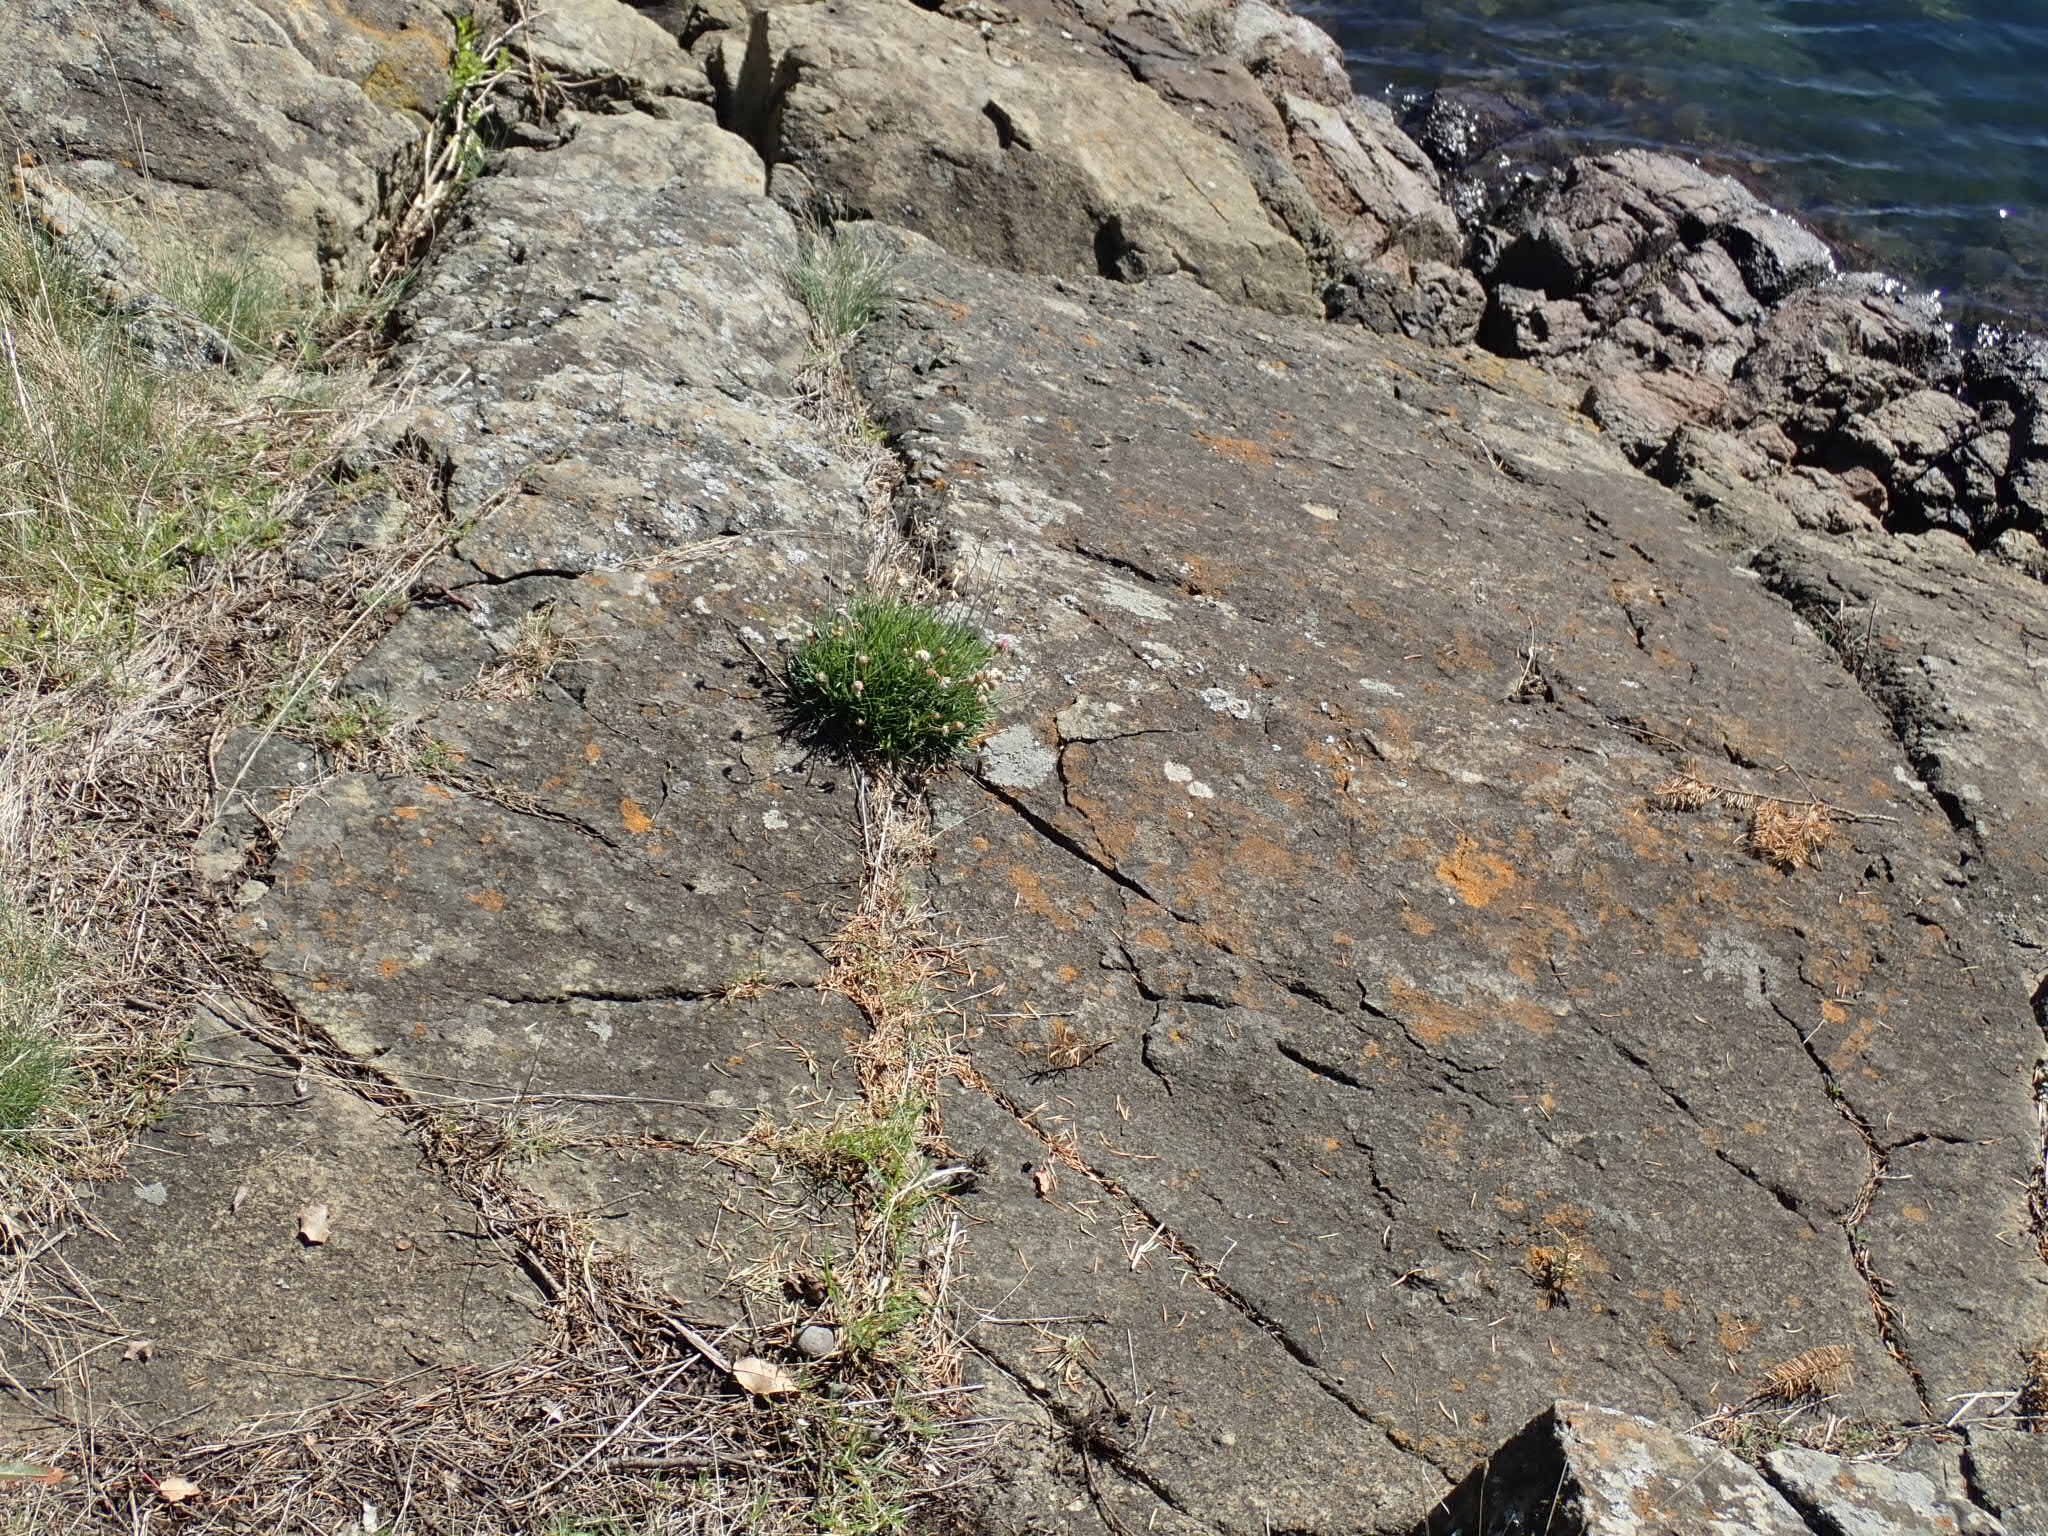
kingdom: Plantae
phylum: Tracheophyta
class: Magnoliopsida
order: Caryophyllales
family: Plumbaginaceae
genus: Armeria
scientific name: Armeria maritima
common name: Thrift
